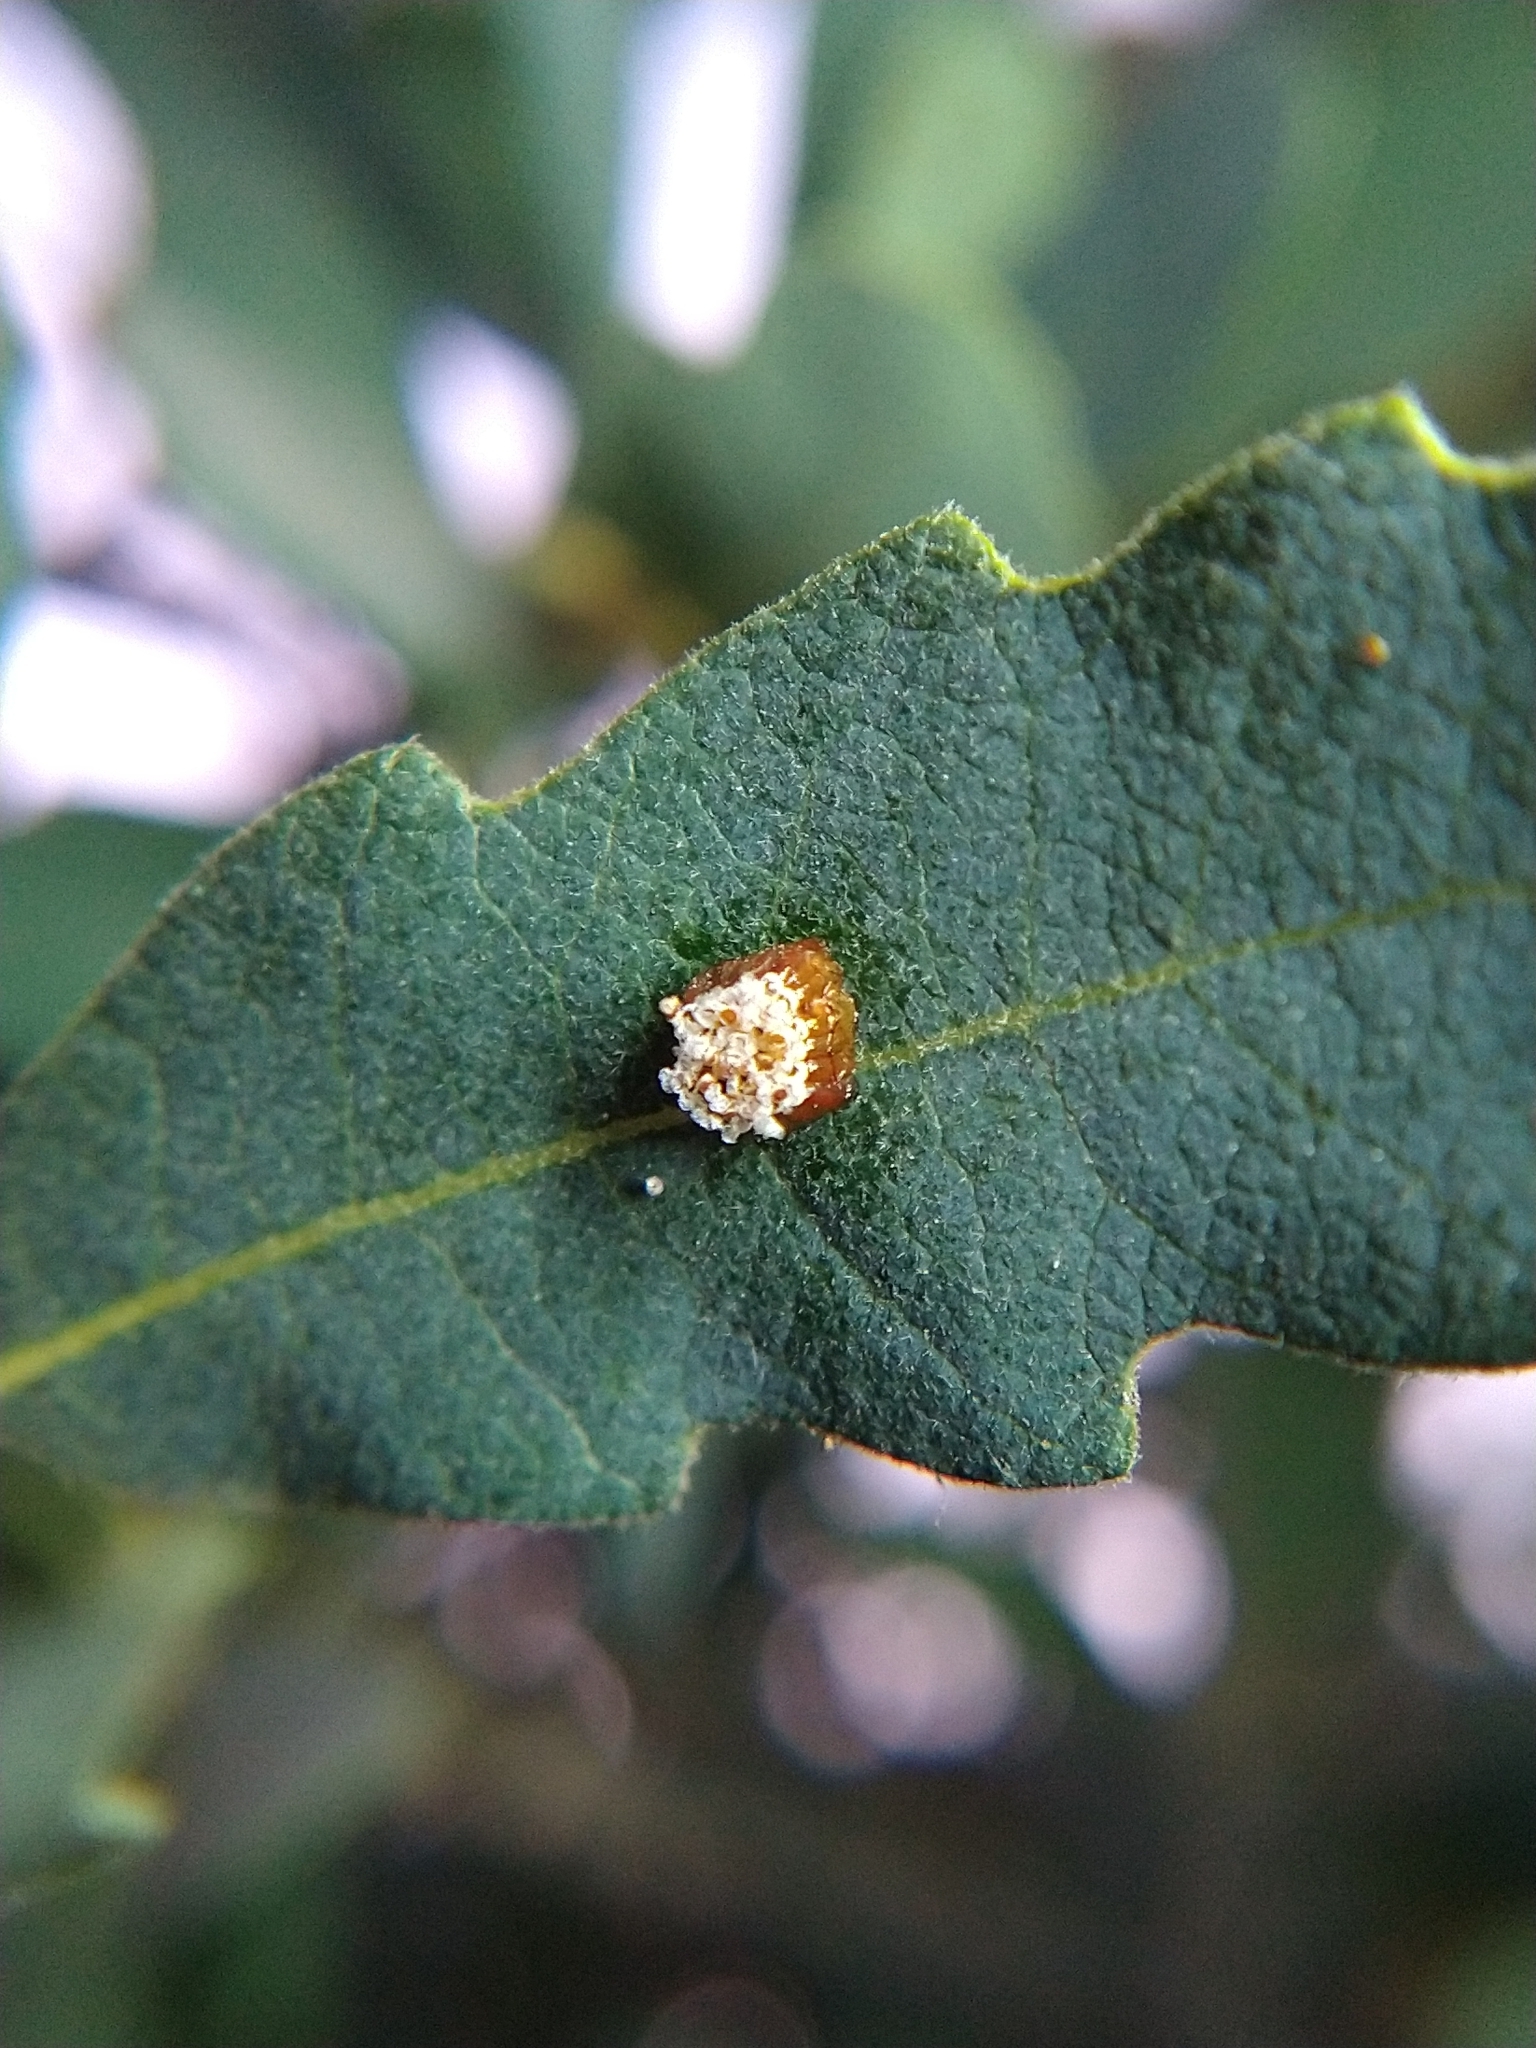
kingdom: Animalia
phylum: Arthropoda
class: Insecta
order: Hemiptera
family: Reduviidae
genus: Zelus
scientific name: Zelus renardii
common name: Assassin bug
